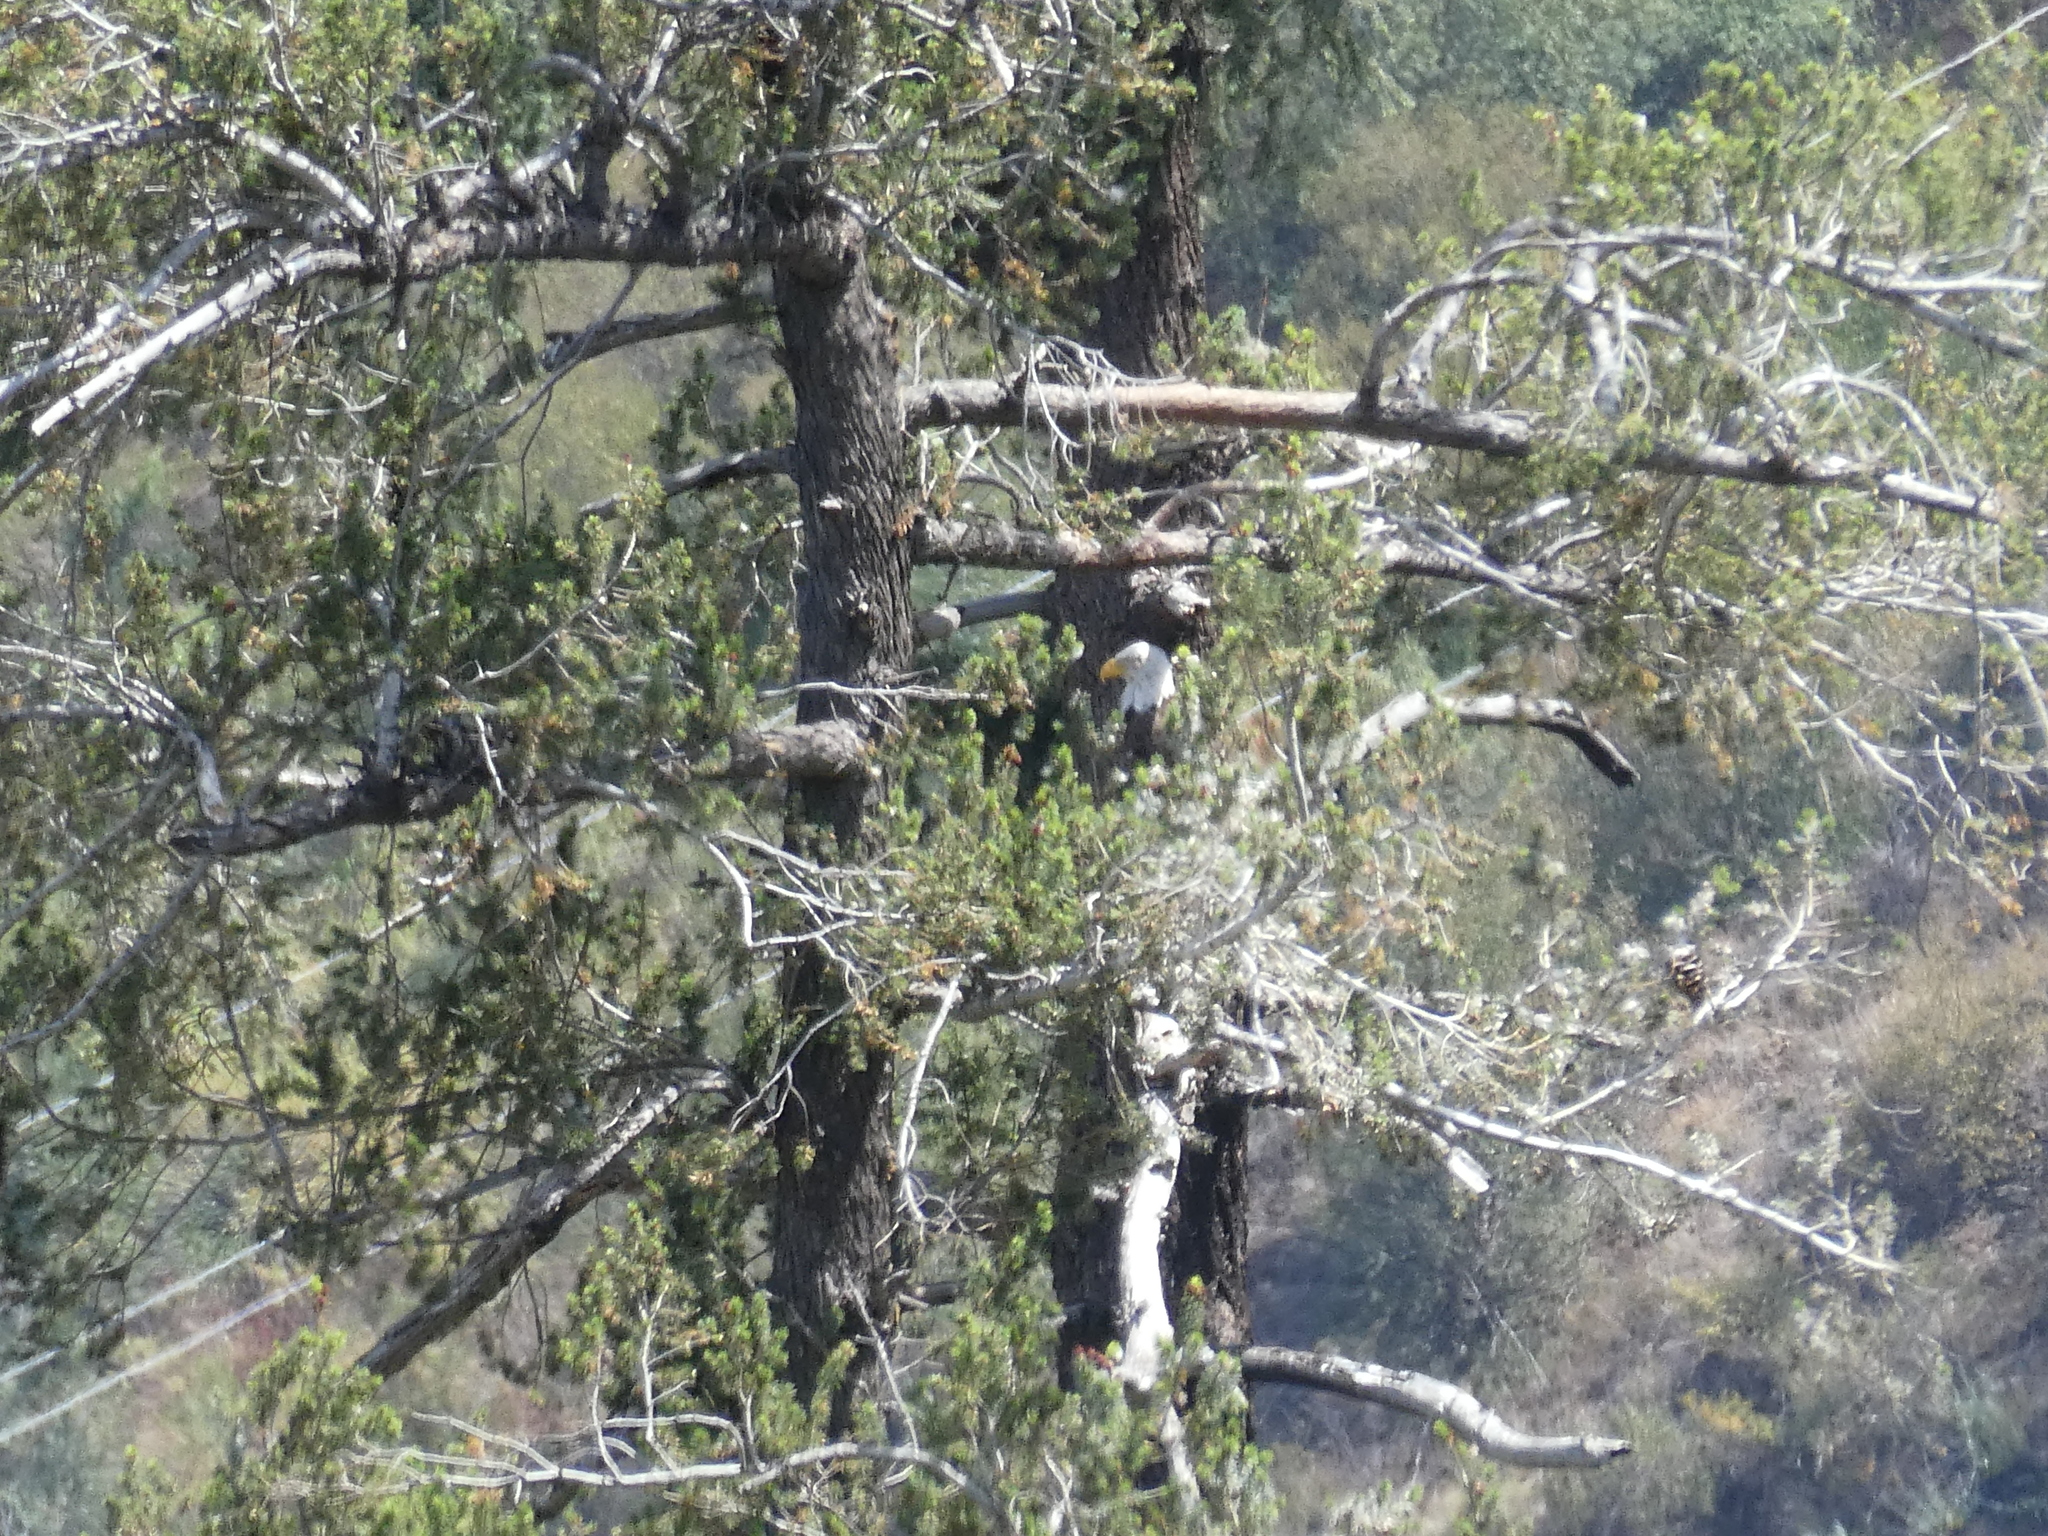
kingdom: Animalia
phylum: Chordata
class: Aves
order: Accipitriformes
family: Accipitridae
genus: Haliaeetus
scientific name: Haliaeetus leucocephalus
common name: Bald eagle
